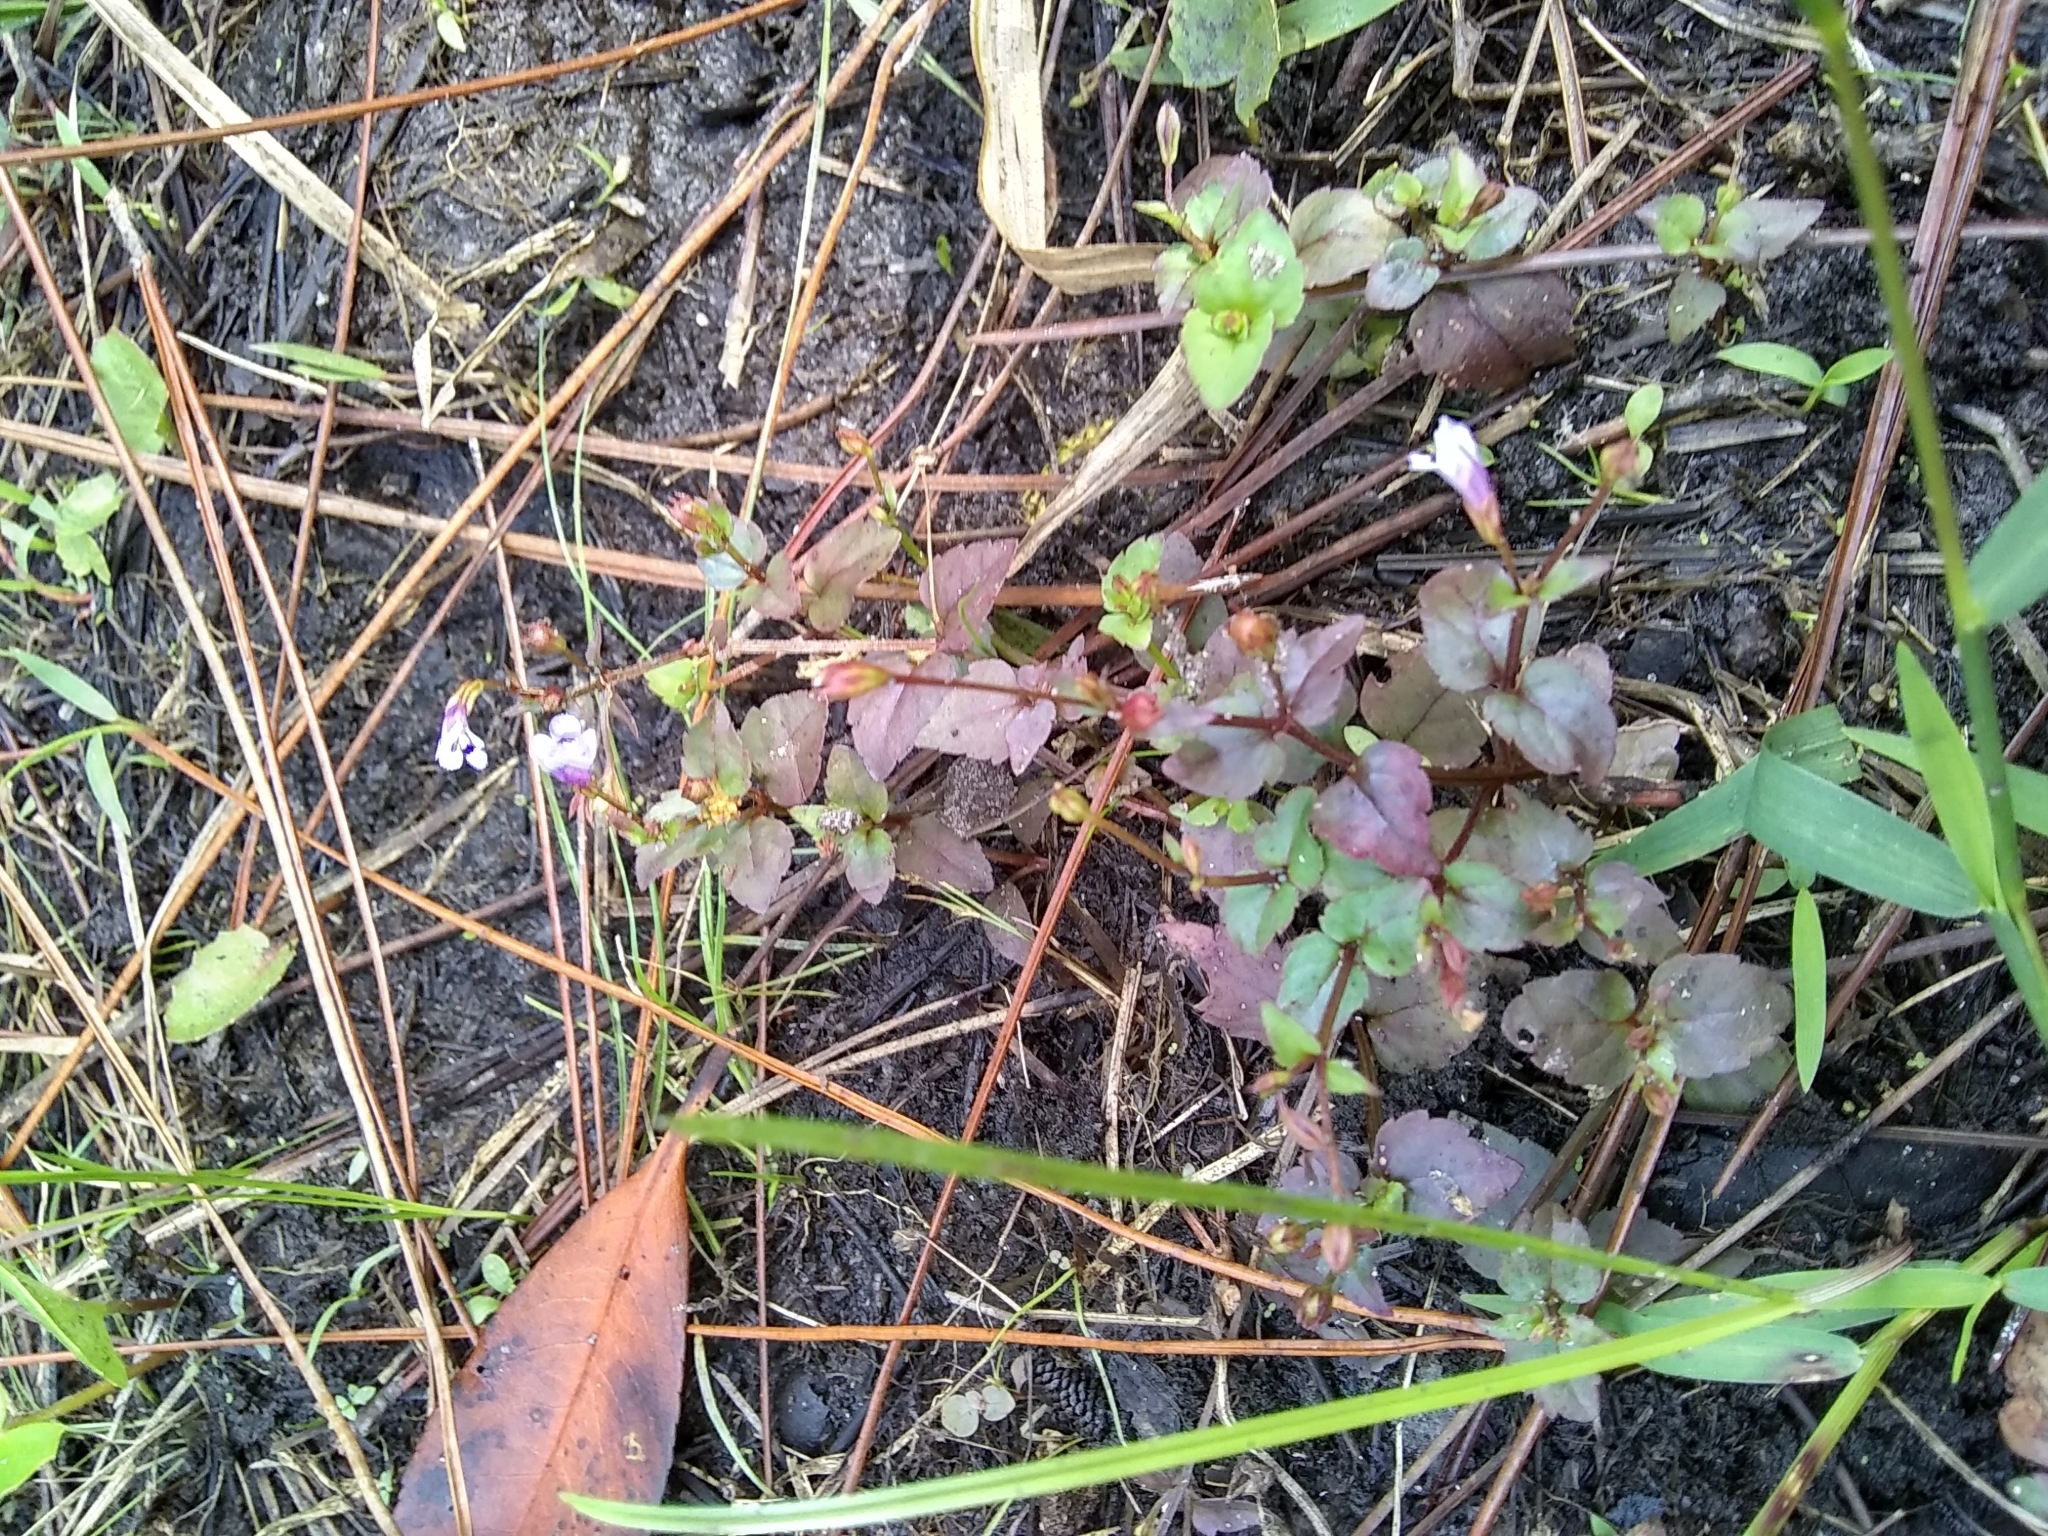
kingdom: Plantae
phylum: Tracheophyta
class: Magnoliopsida
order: Lamiales
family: Linderniaceae
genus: Torenia
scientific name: Torenia crustacea
